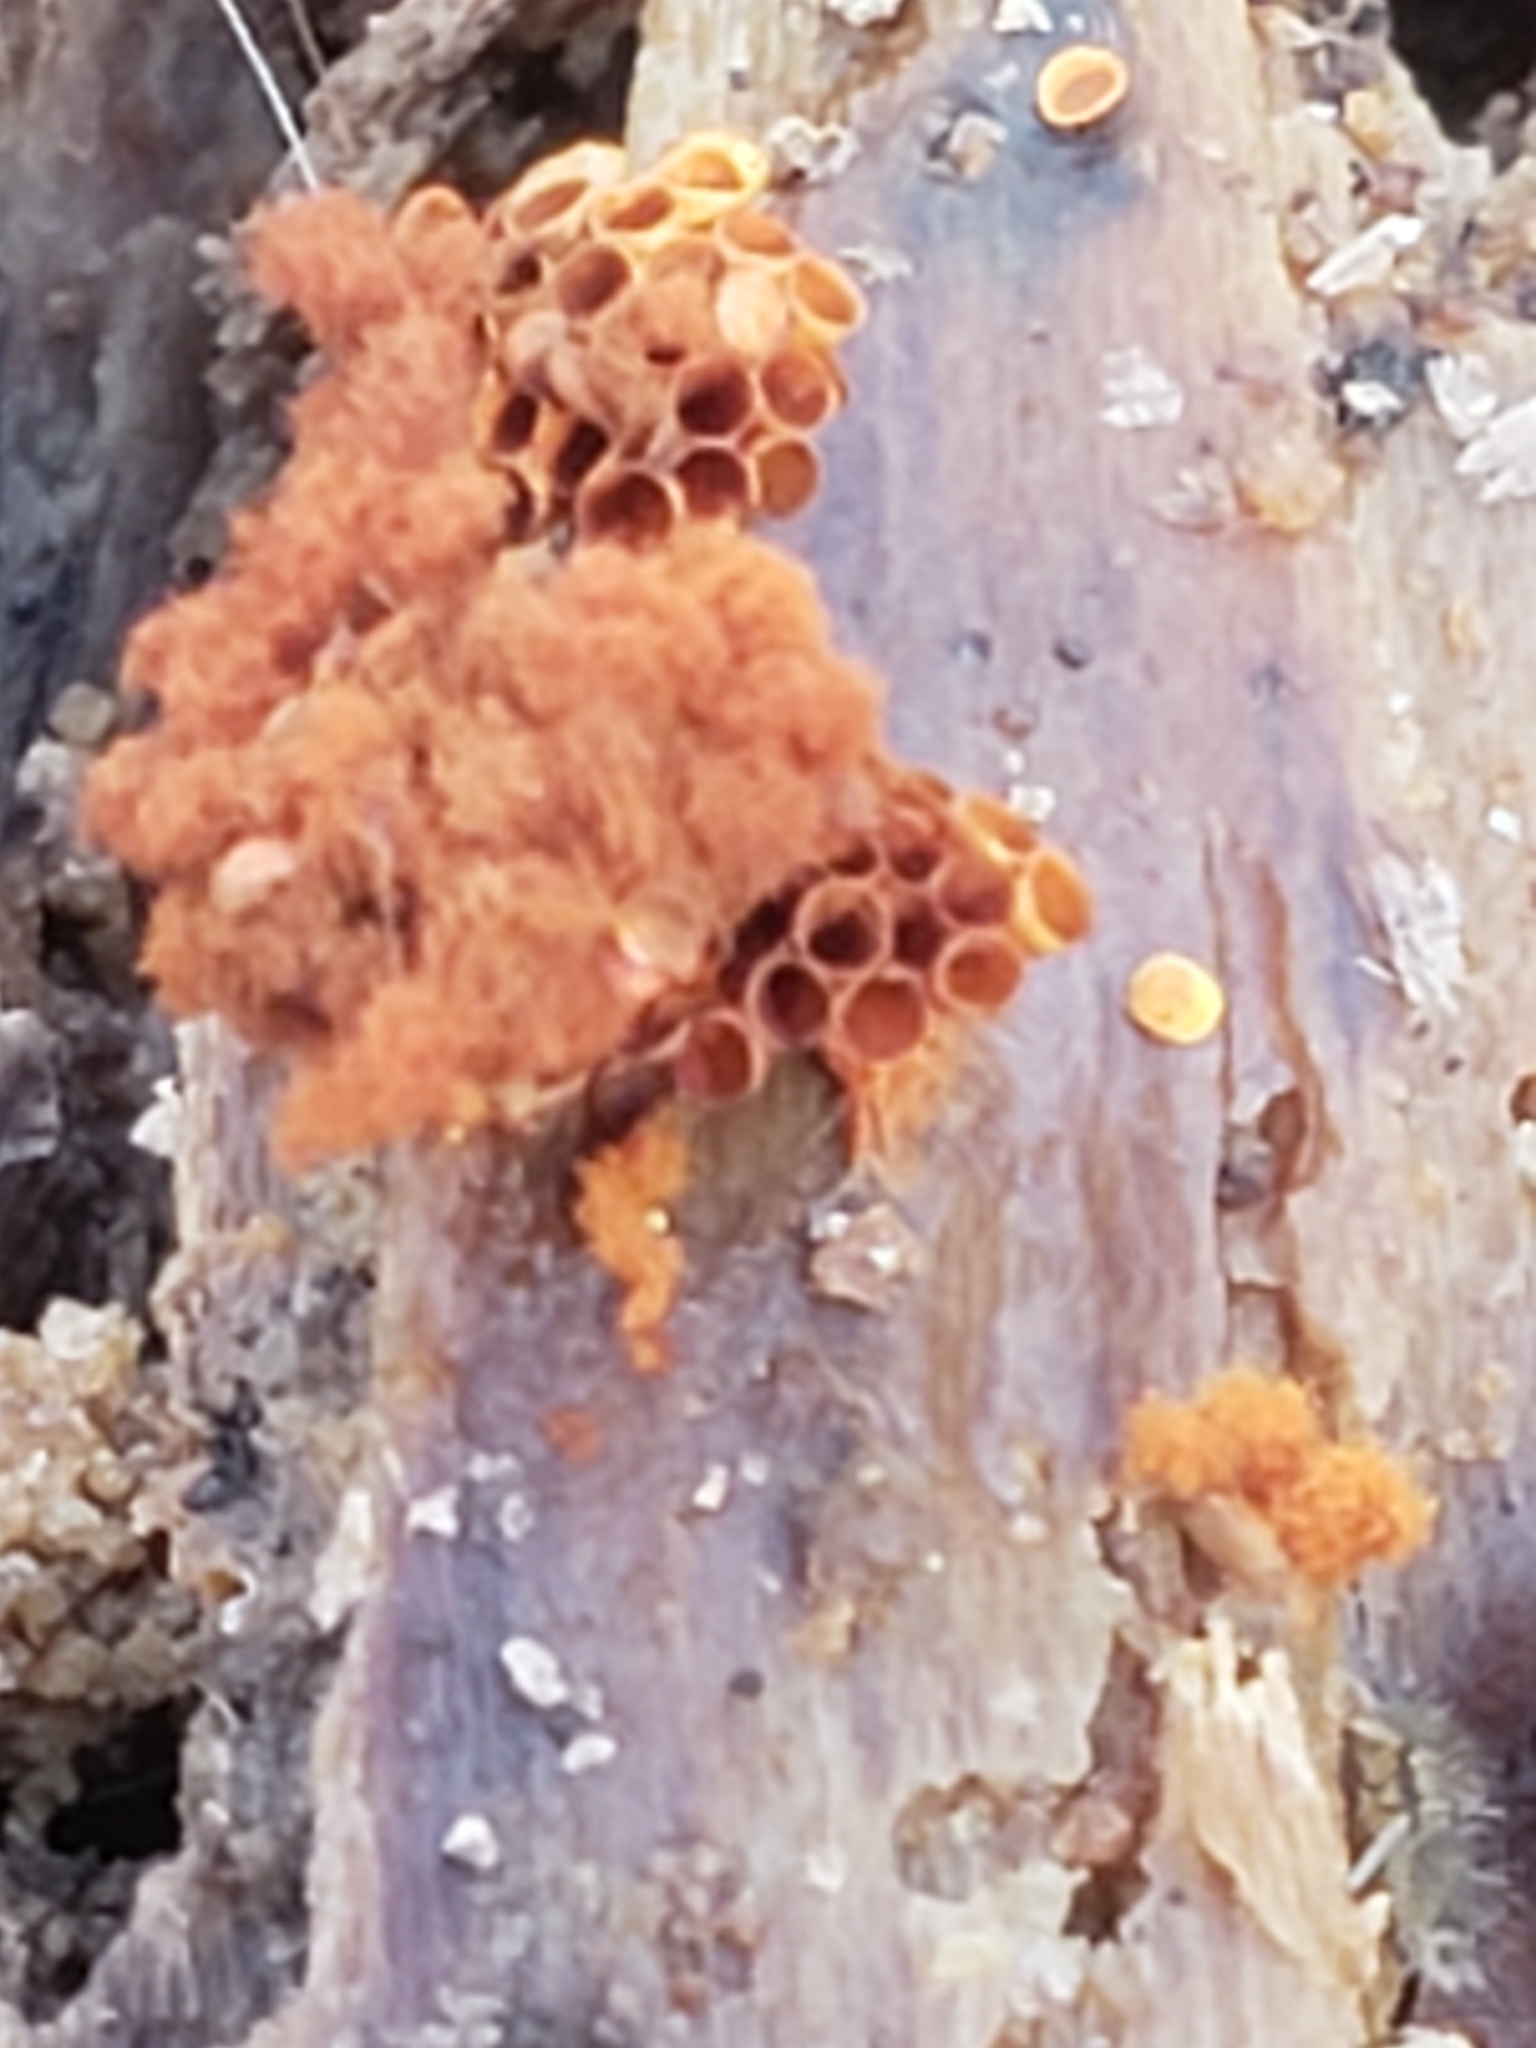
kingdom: Protozoa
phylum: Mycetozoa
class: Myxomycetes
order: Trichiales
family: Trichiaceae
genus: Metatrichia
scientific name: Metatrichia vesparia
